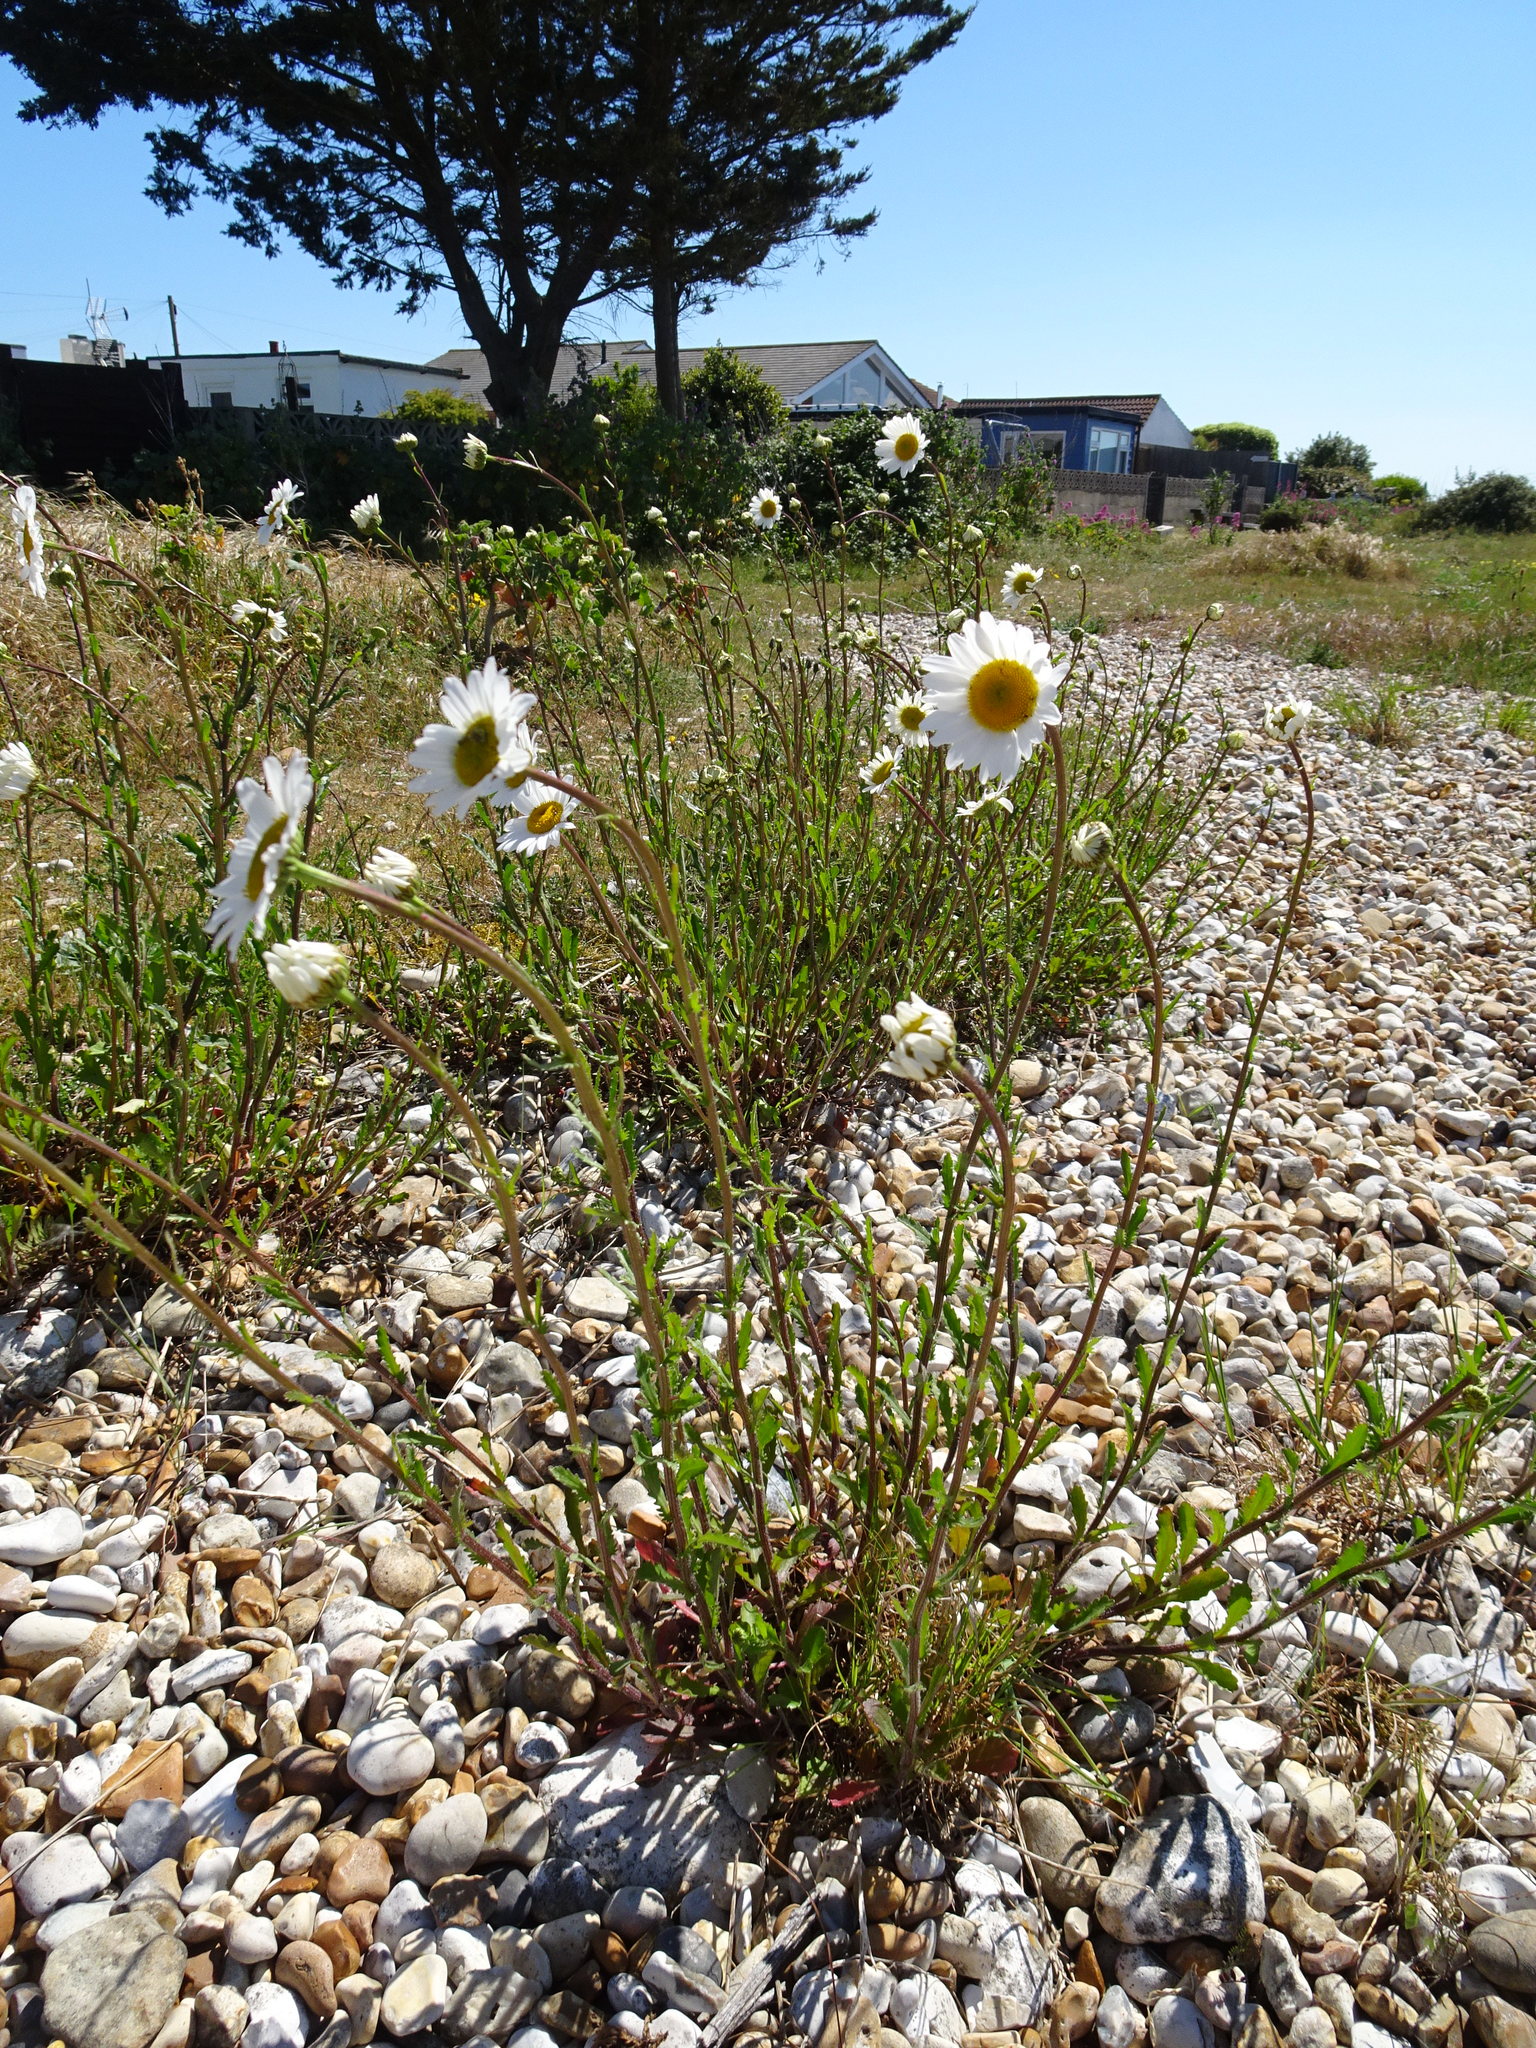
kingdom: Plantae
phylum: Tracheophyta
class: Magnoliopsida
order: Asterales
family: Asteraceae
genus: Leucanthemum
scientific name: Leucanthemum vulgare
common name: Oxeye daisy
